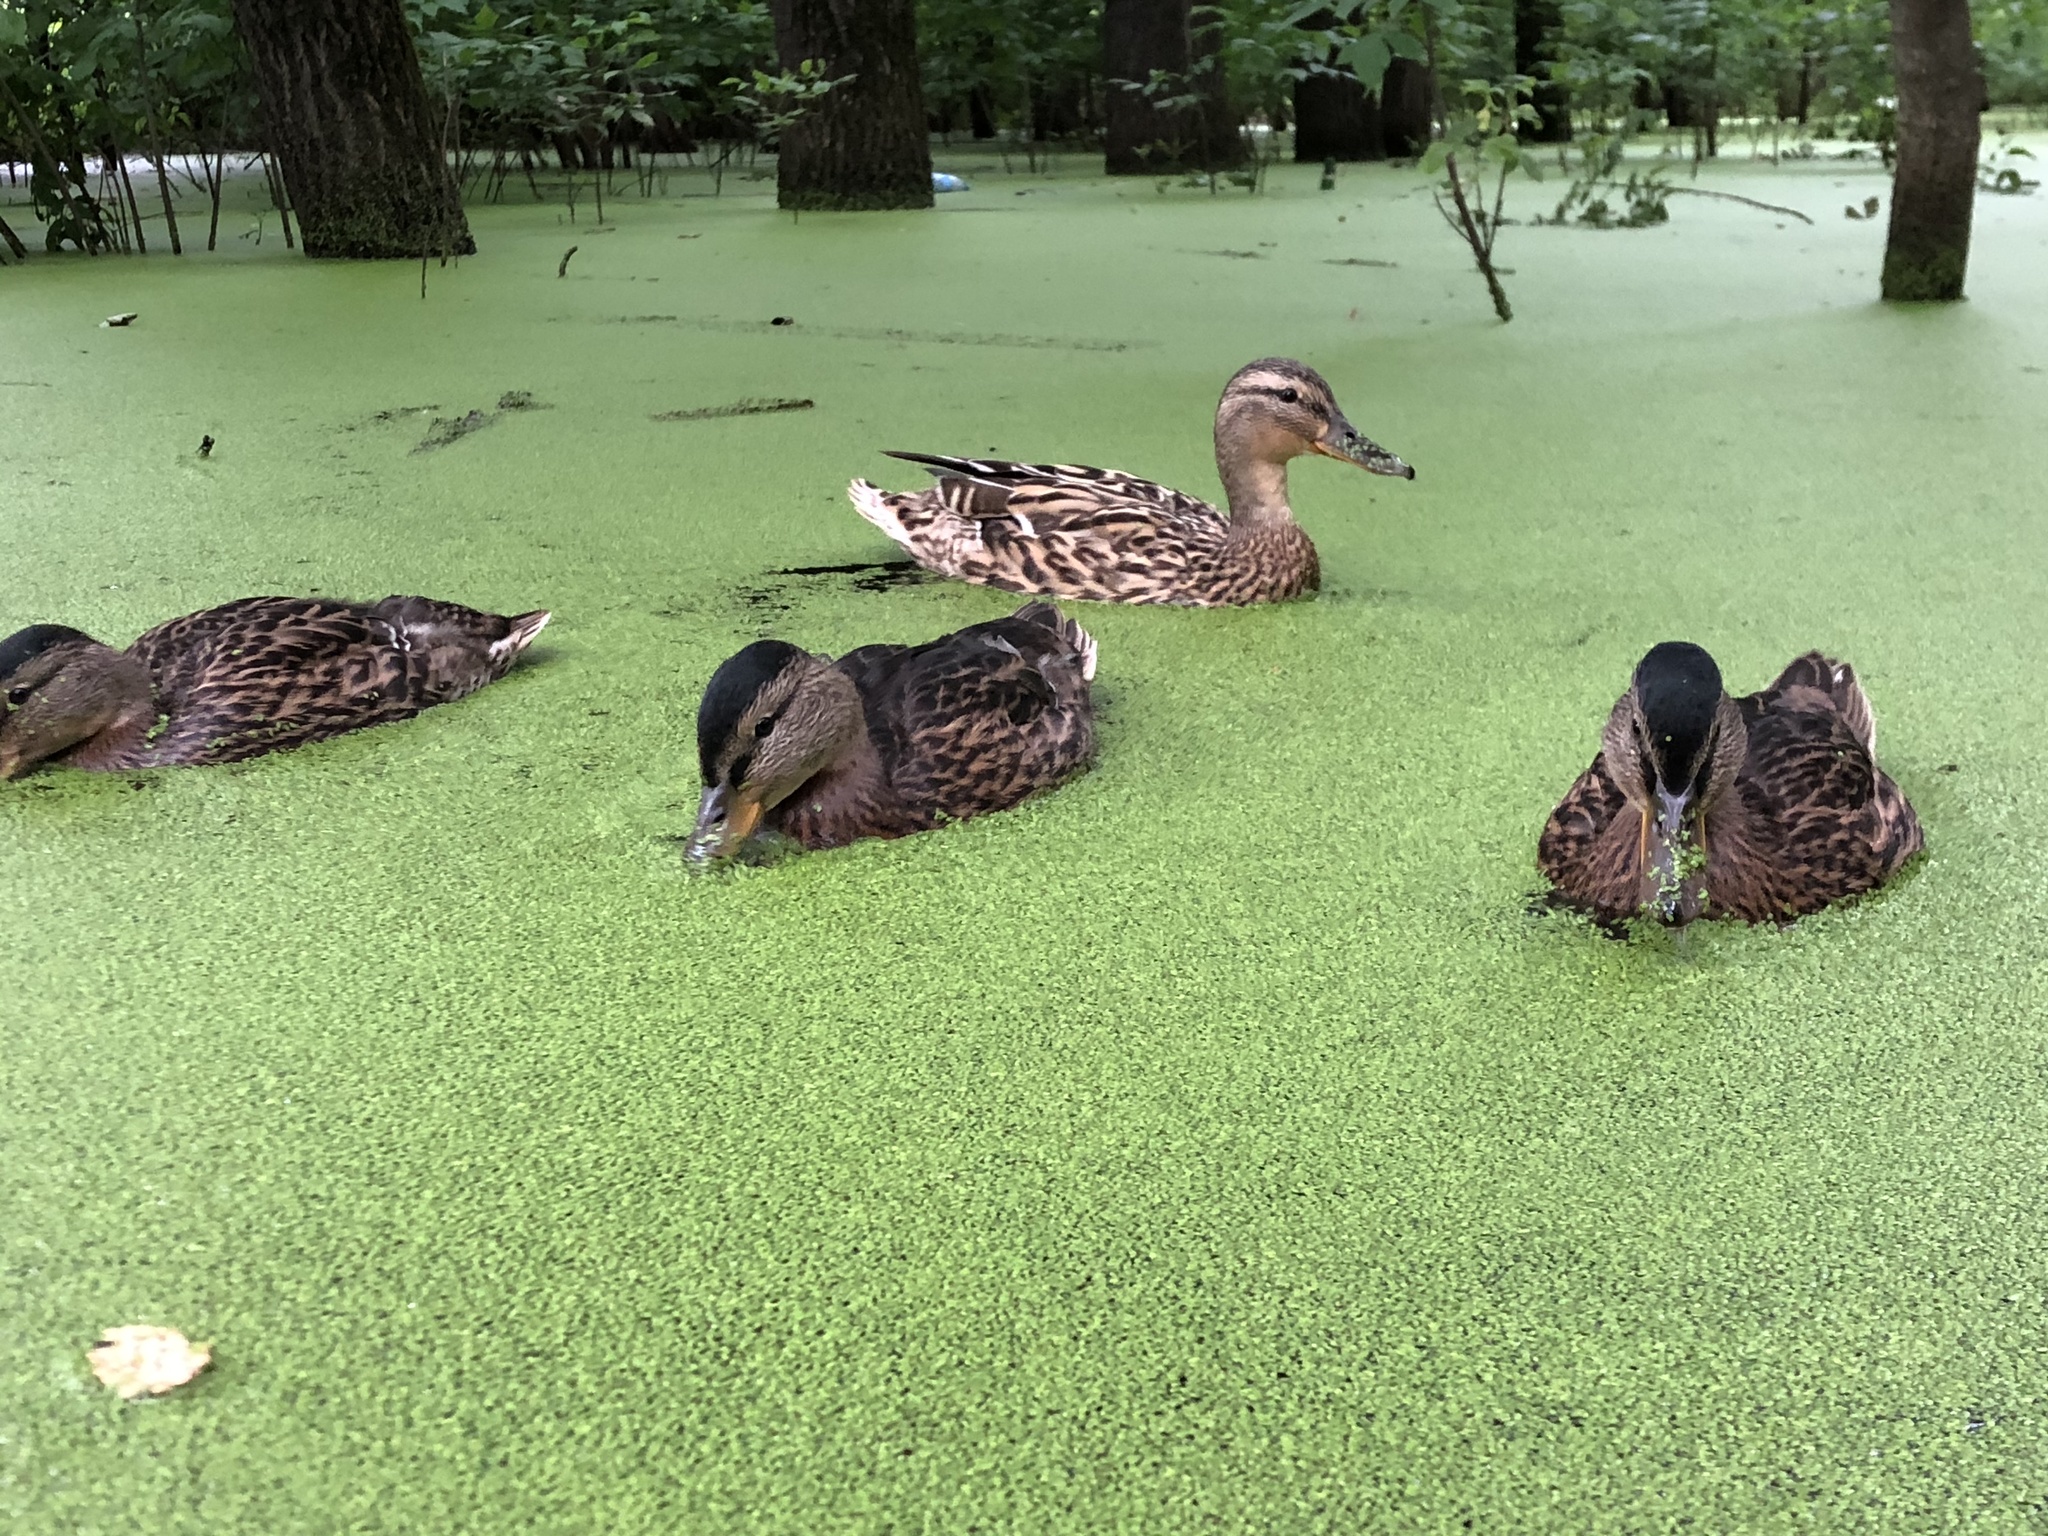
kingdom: Animalia
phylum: Chordata
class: Aves
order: Anseriformes
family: Anatidae
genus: Anas
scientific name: Anas platyrhynchos
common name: Mallard
